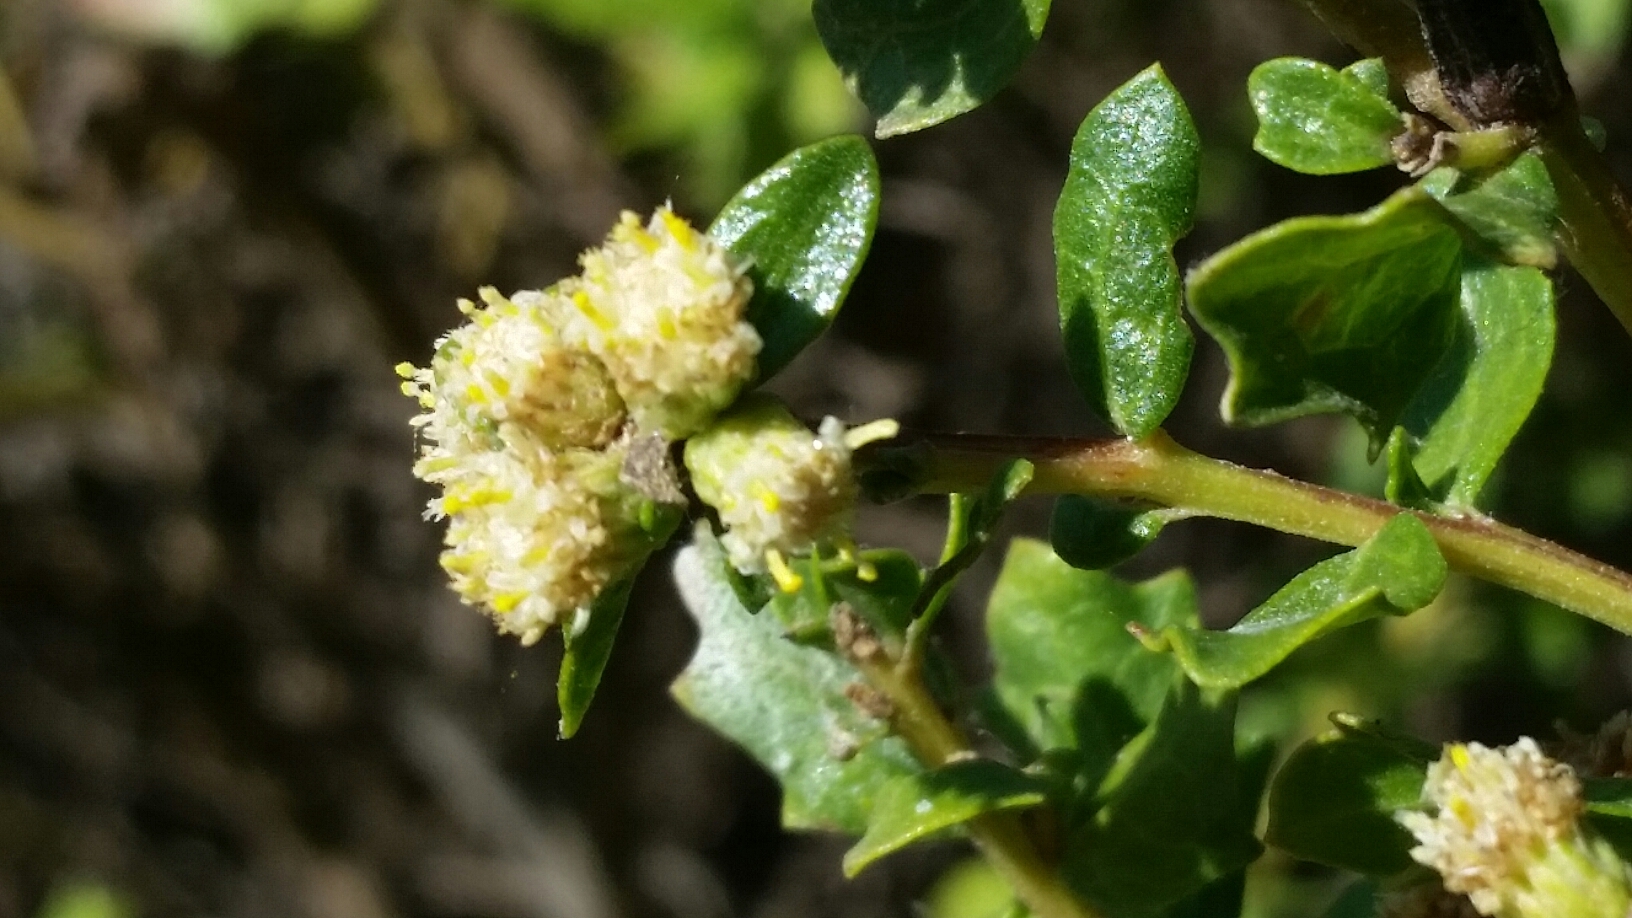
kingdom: Plantae
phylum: Tracheophyta
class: Magnoliopsida
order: Asterales
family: Asteraceae
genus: Baccharis
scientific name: Baccharis pilularis
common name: Coyotebrush
